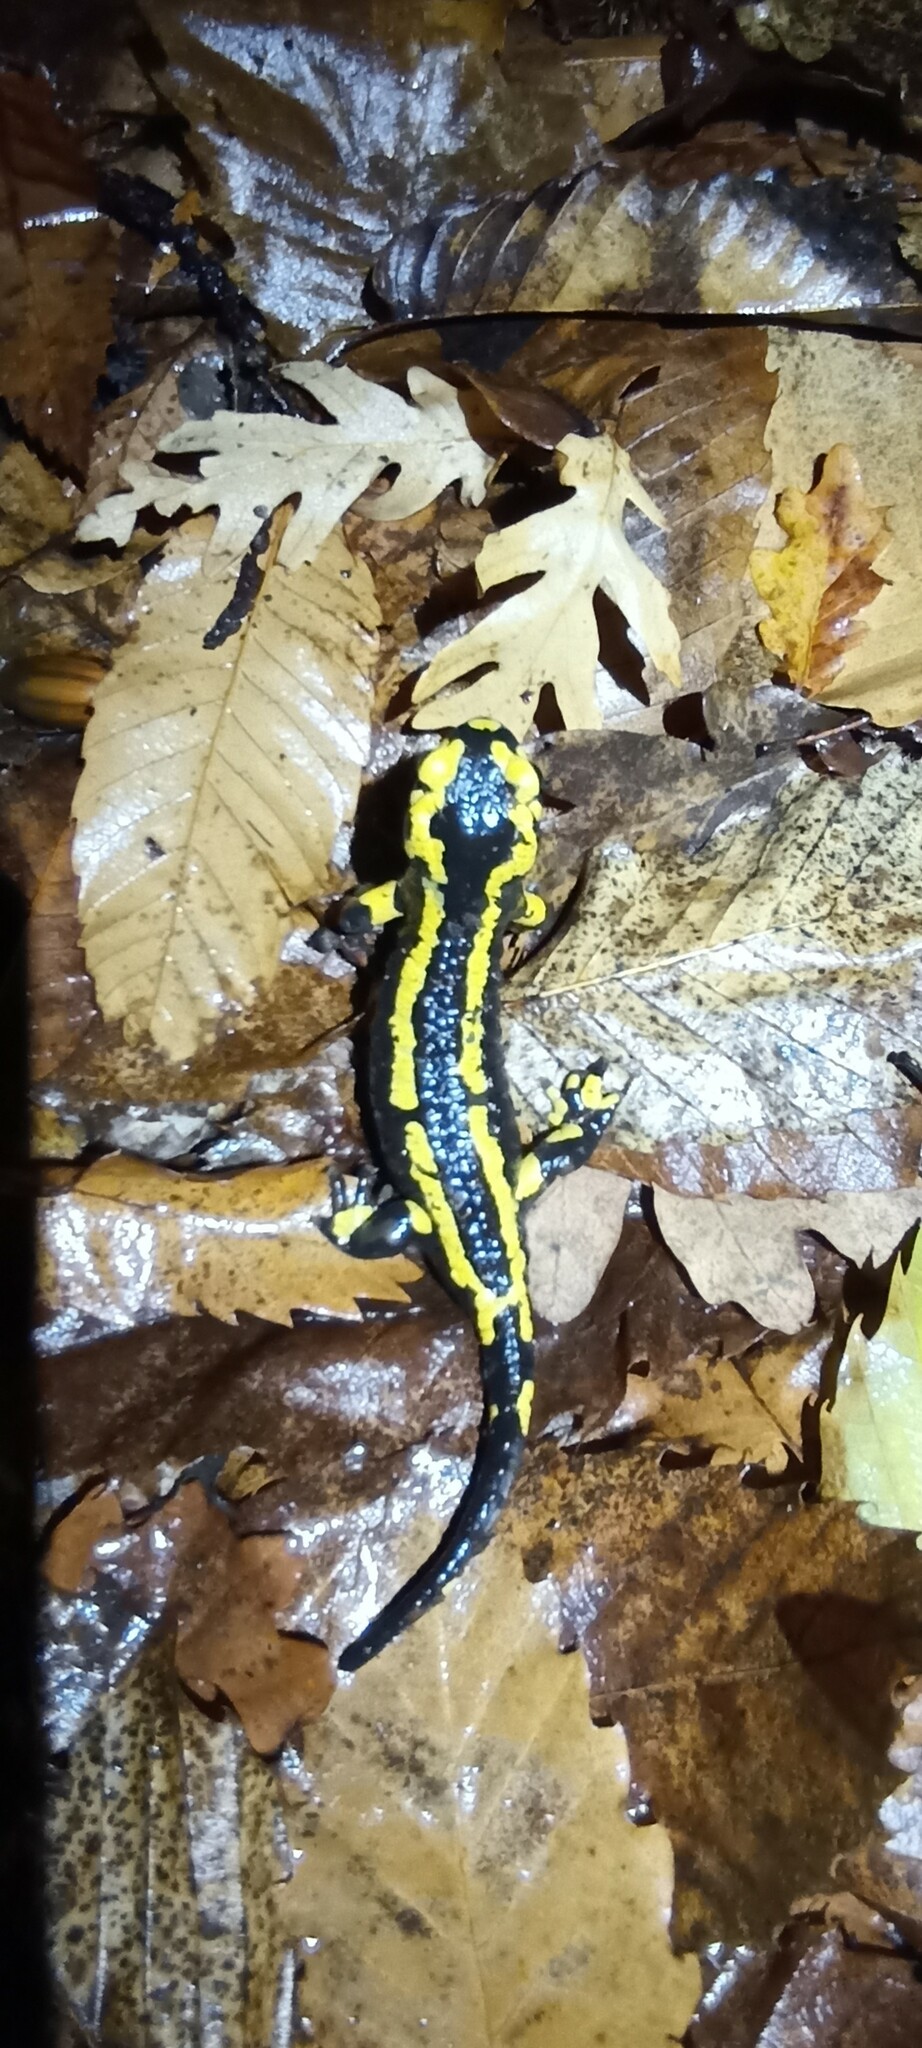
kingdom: Animalia
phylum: Chordata
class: Amphibia
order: Caudata
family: Salamandridae
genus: Salamandra
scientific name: Salamandra salamandra
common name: Fire salamander
